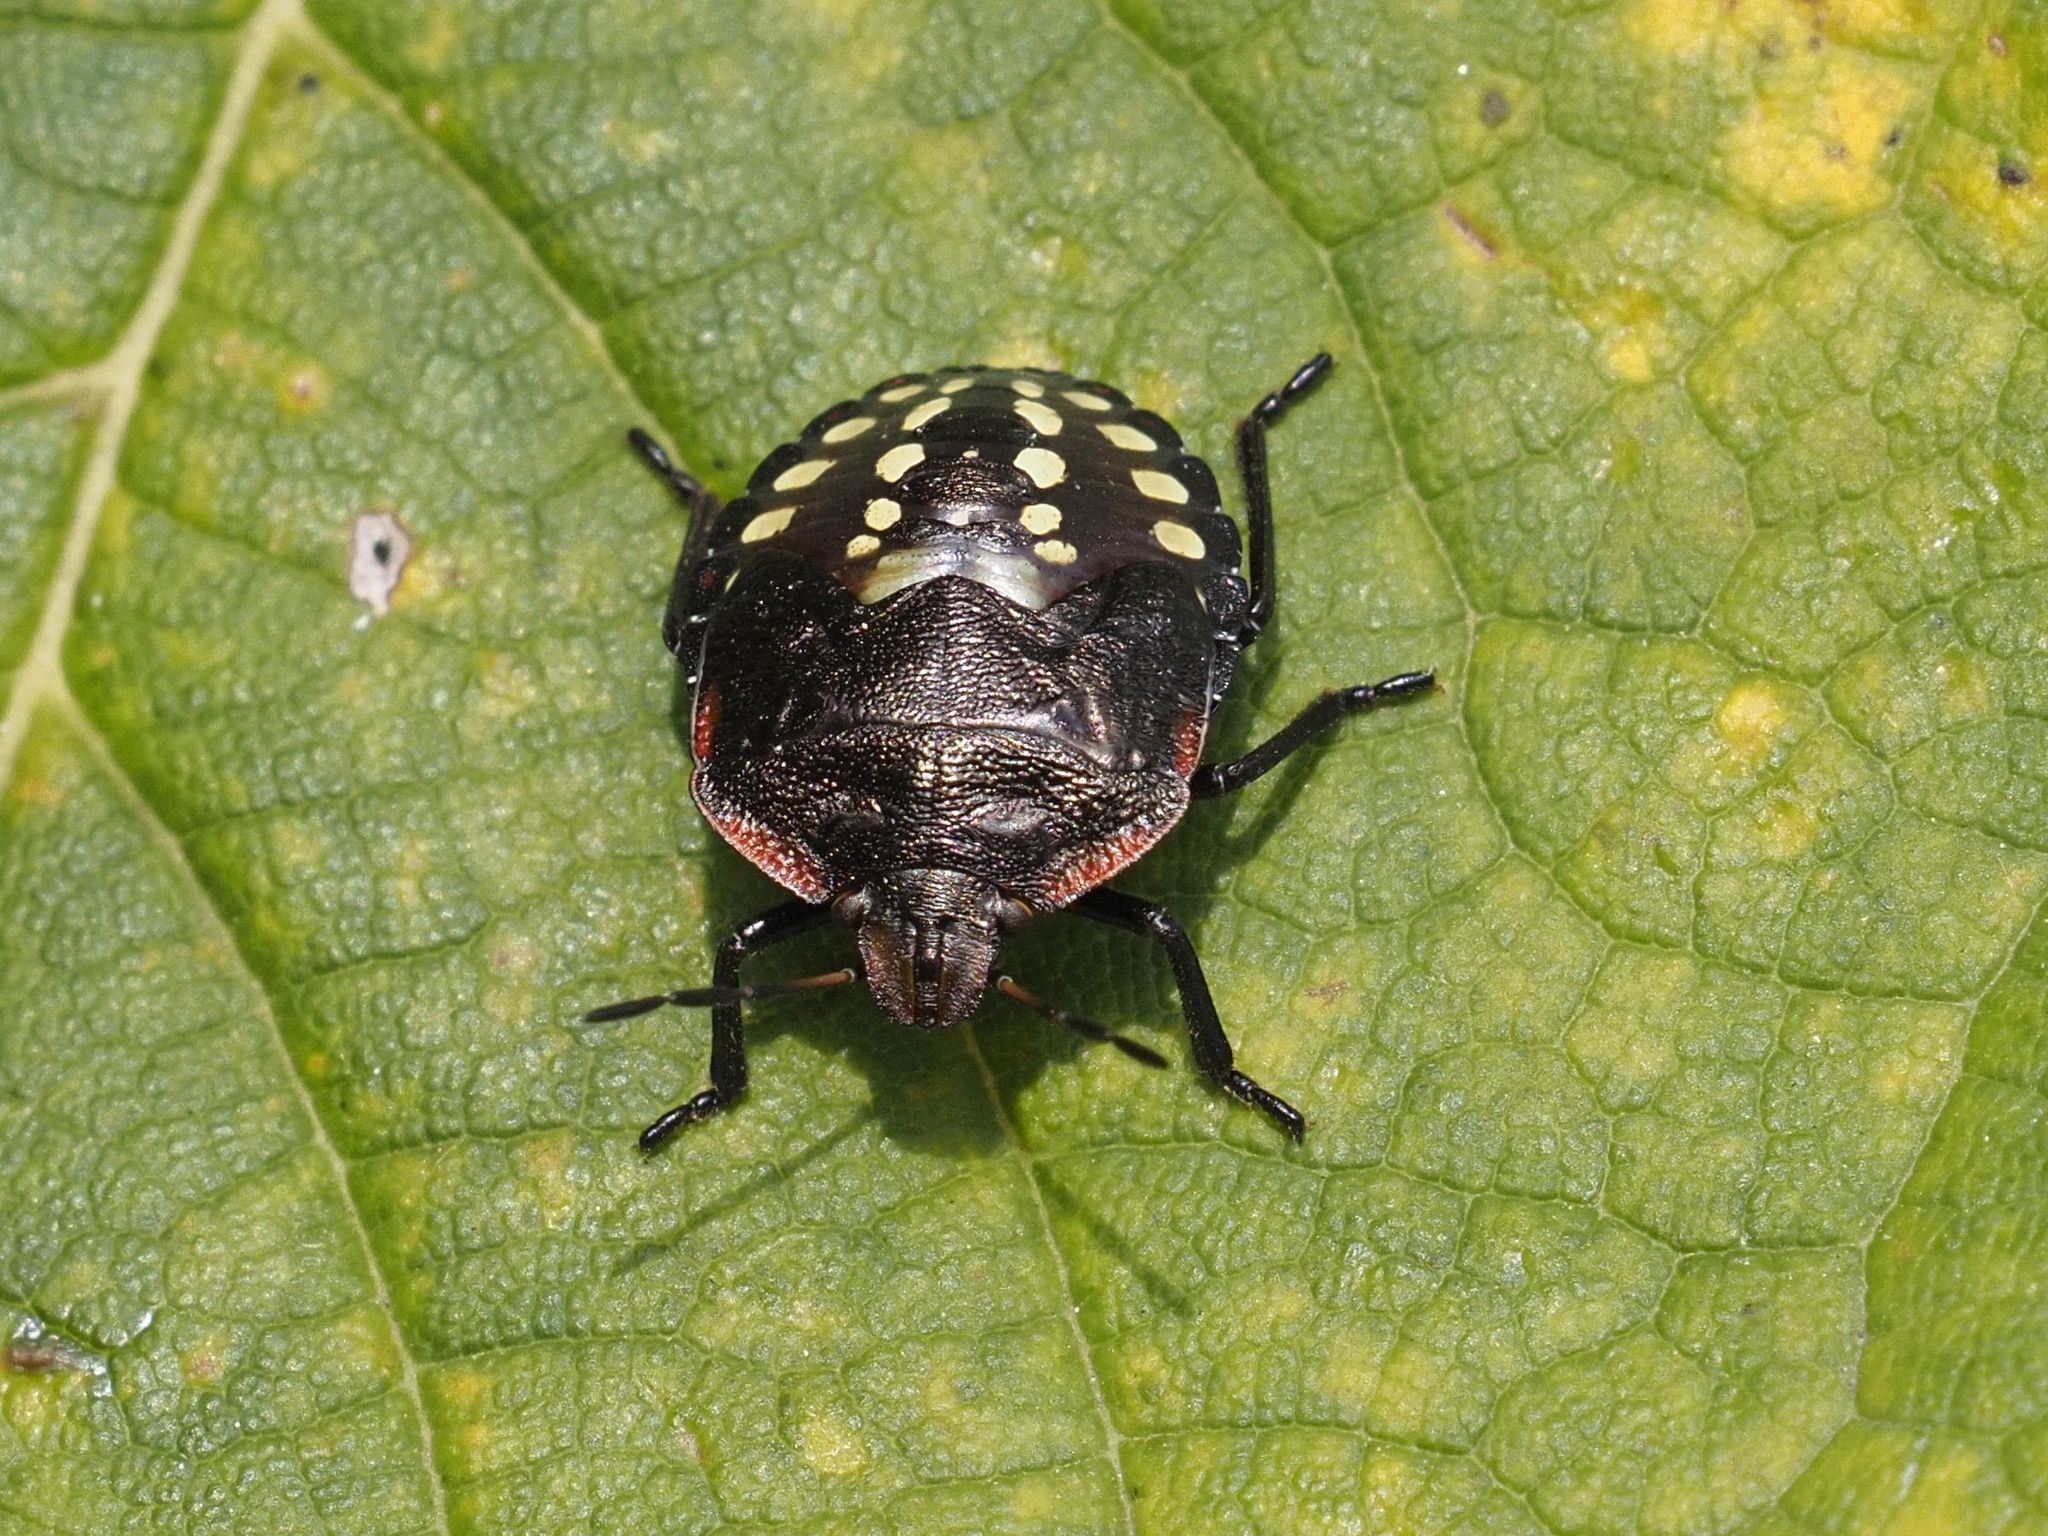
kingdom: Animalia
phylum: Arthropoda
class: Insecta
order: Hemiptera
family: Pentatomidae
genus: Nezara
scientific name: Nezara viridula
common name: Southern green stink bug
